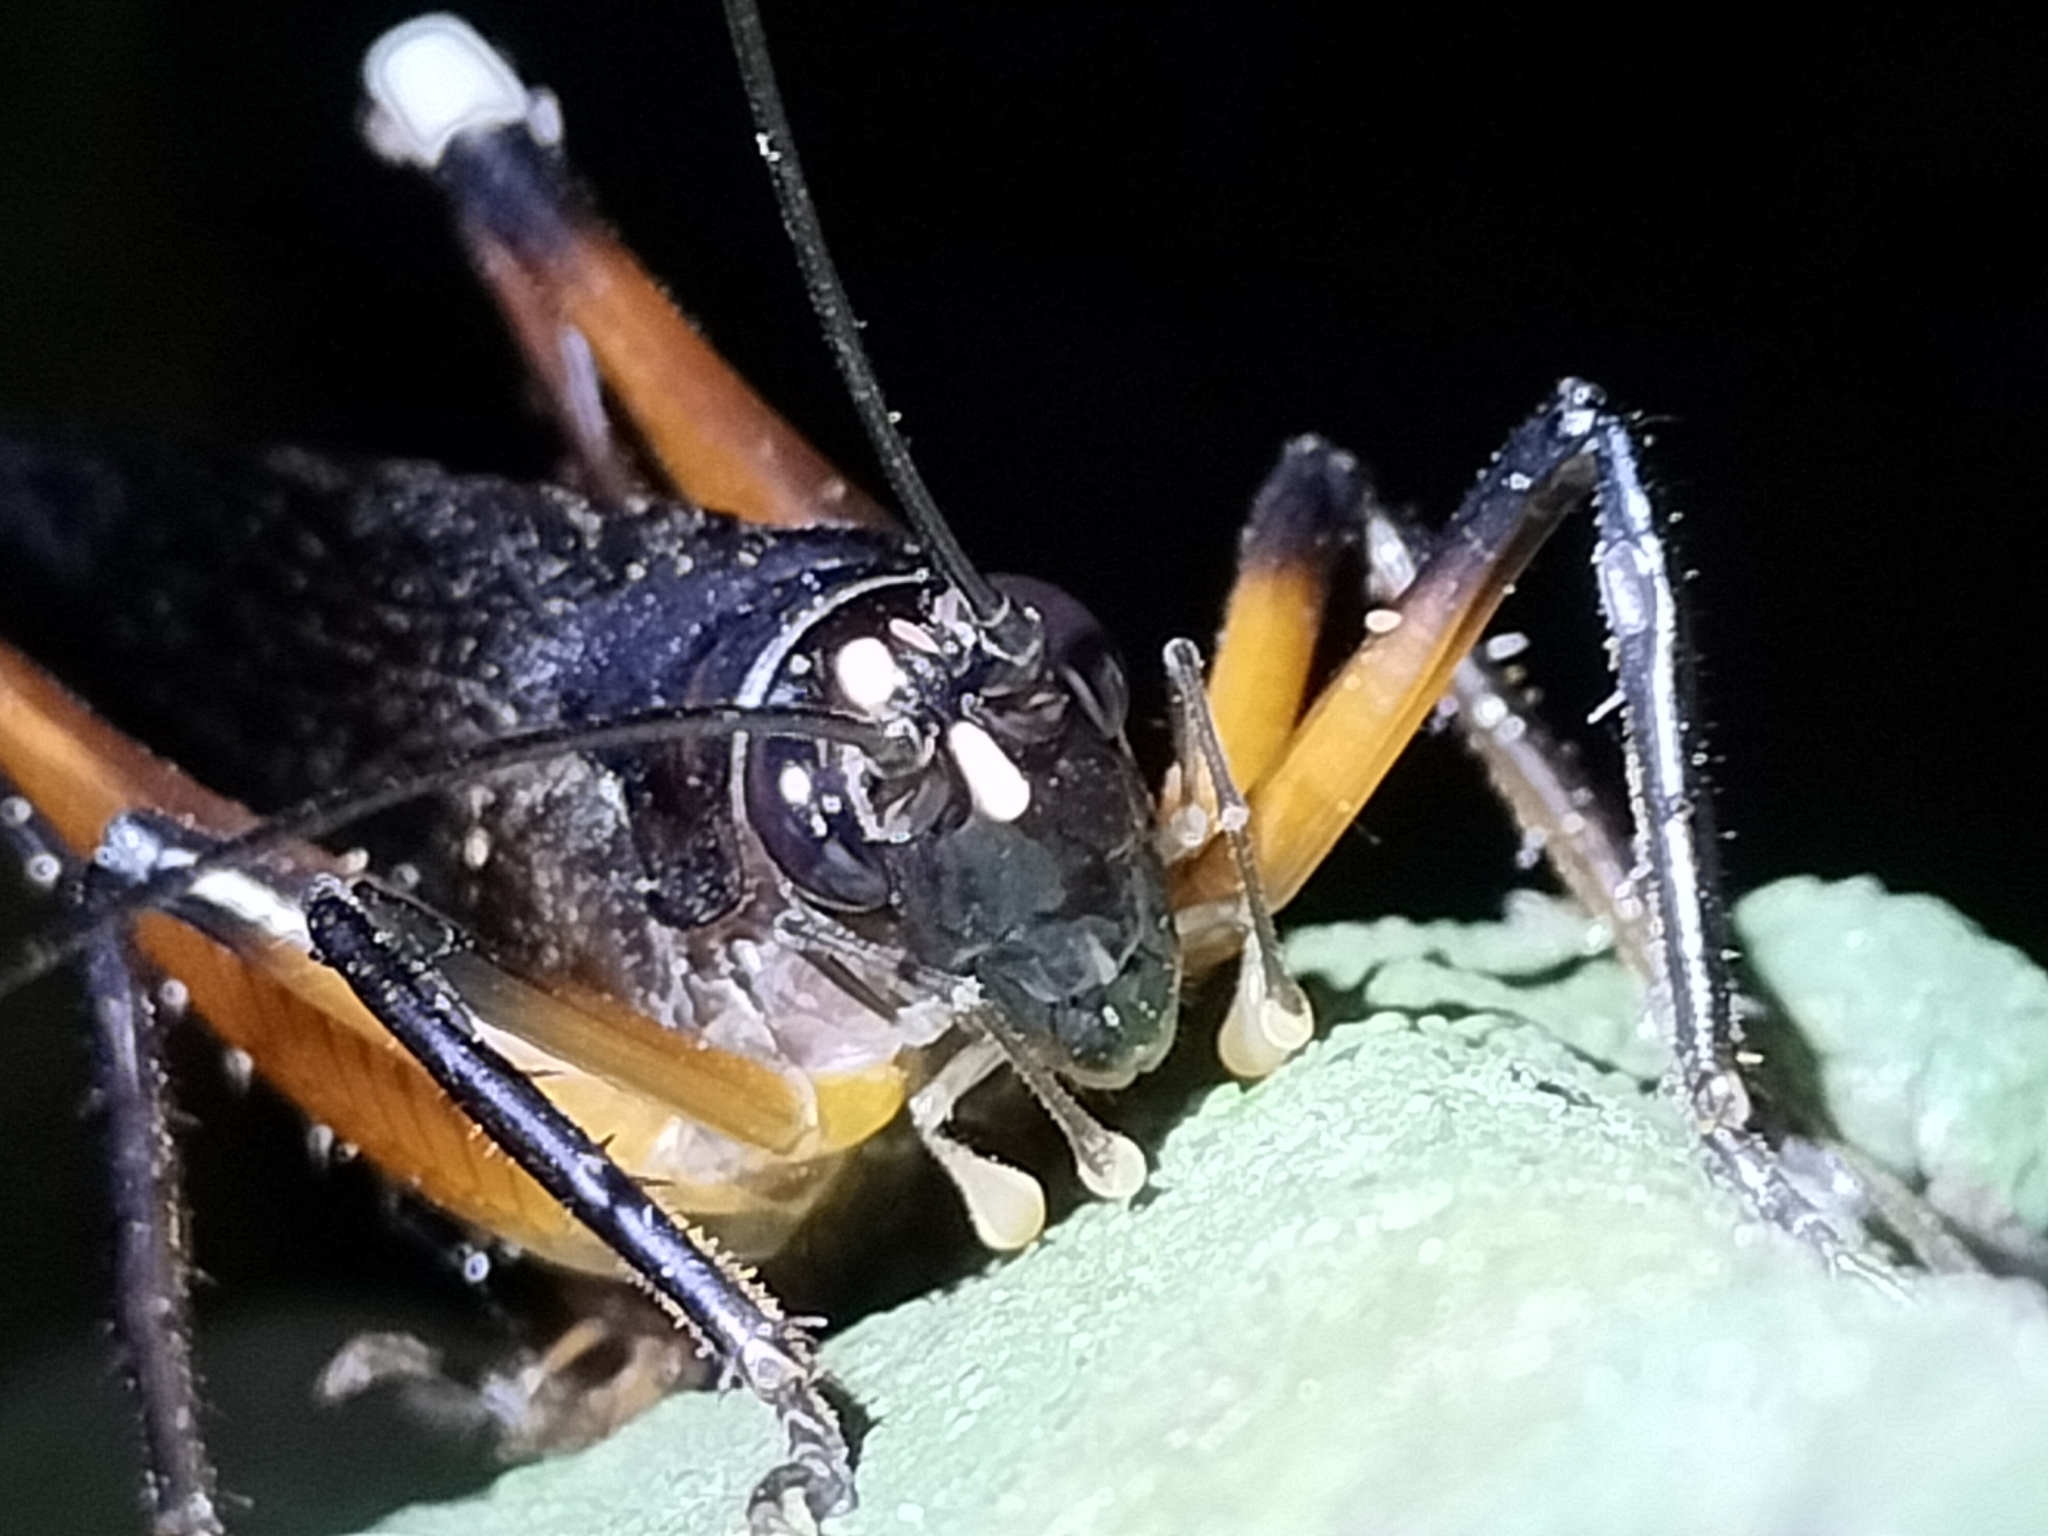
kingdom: Animalia
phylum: Arthropoda
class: Insecta
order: Orthoptera
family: Anostostomatidae
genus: Exogryllacris
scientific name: Exogryllacris ornata
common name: Broad-winged forest cricket
